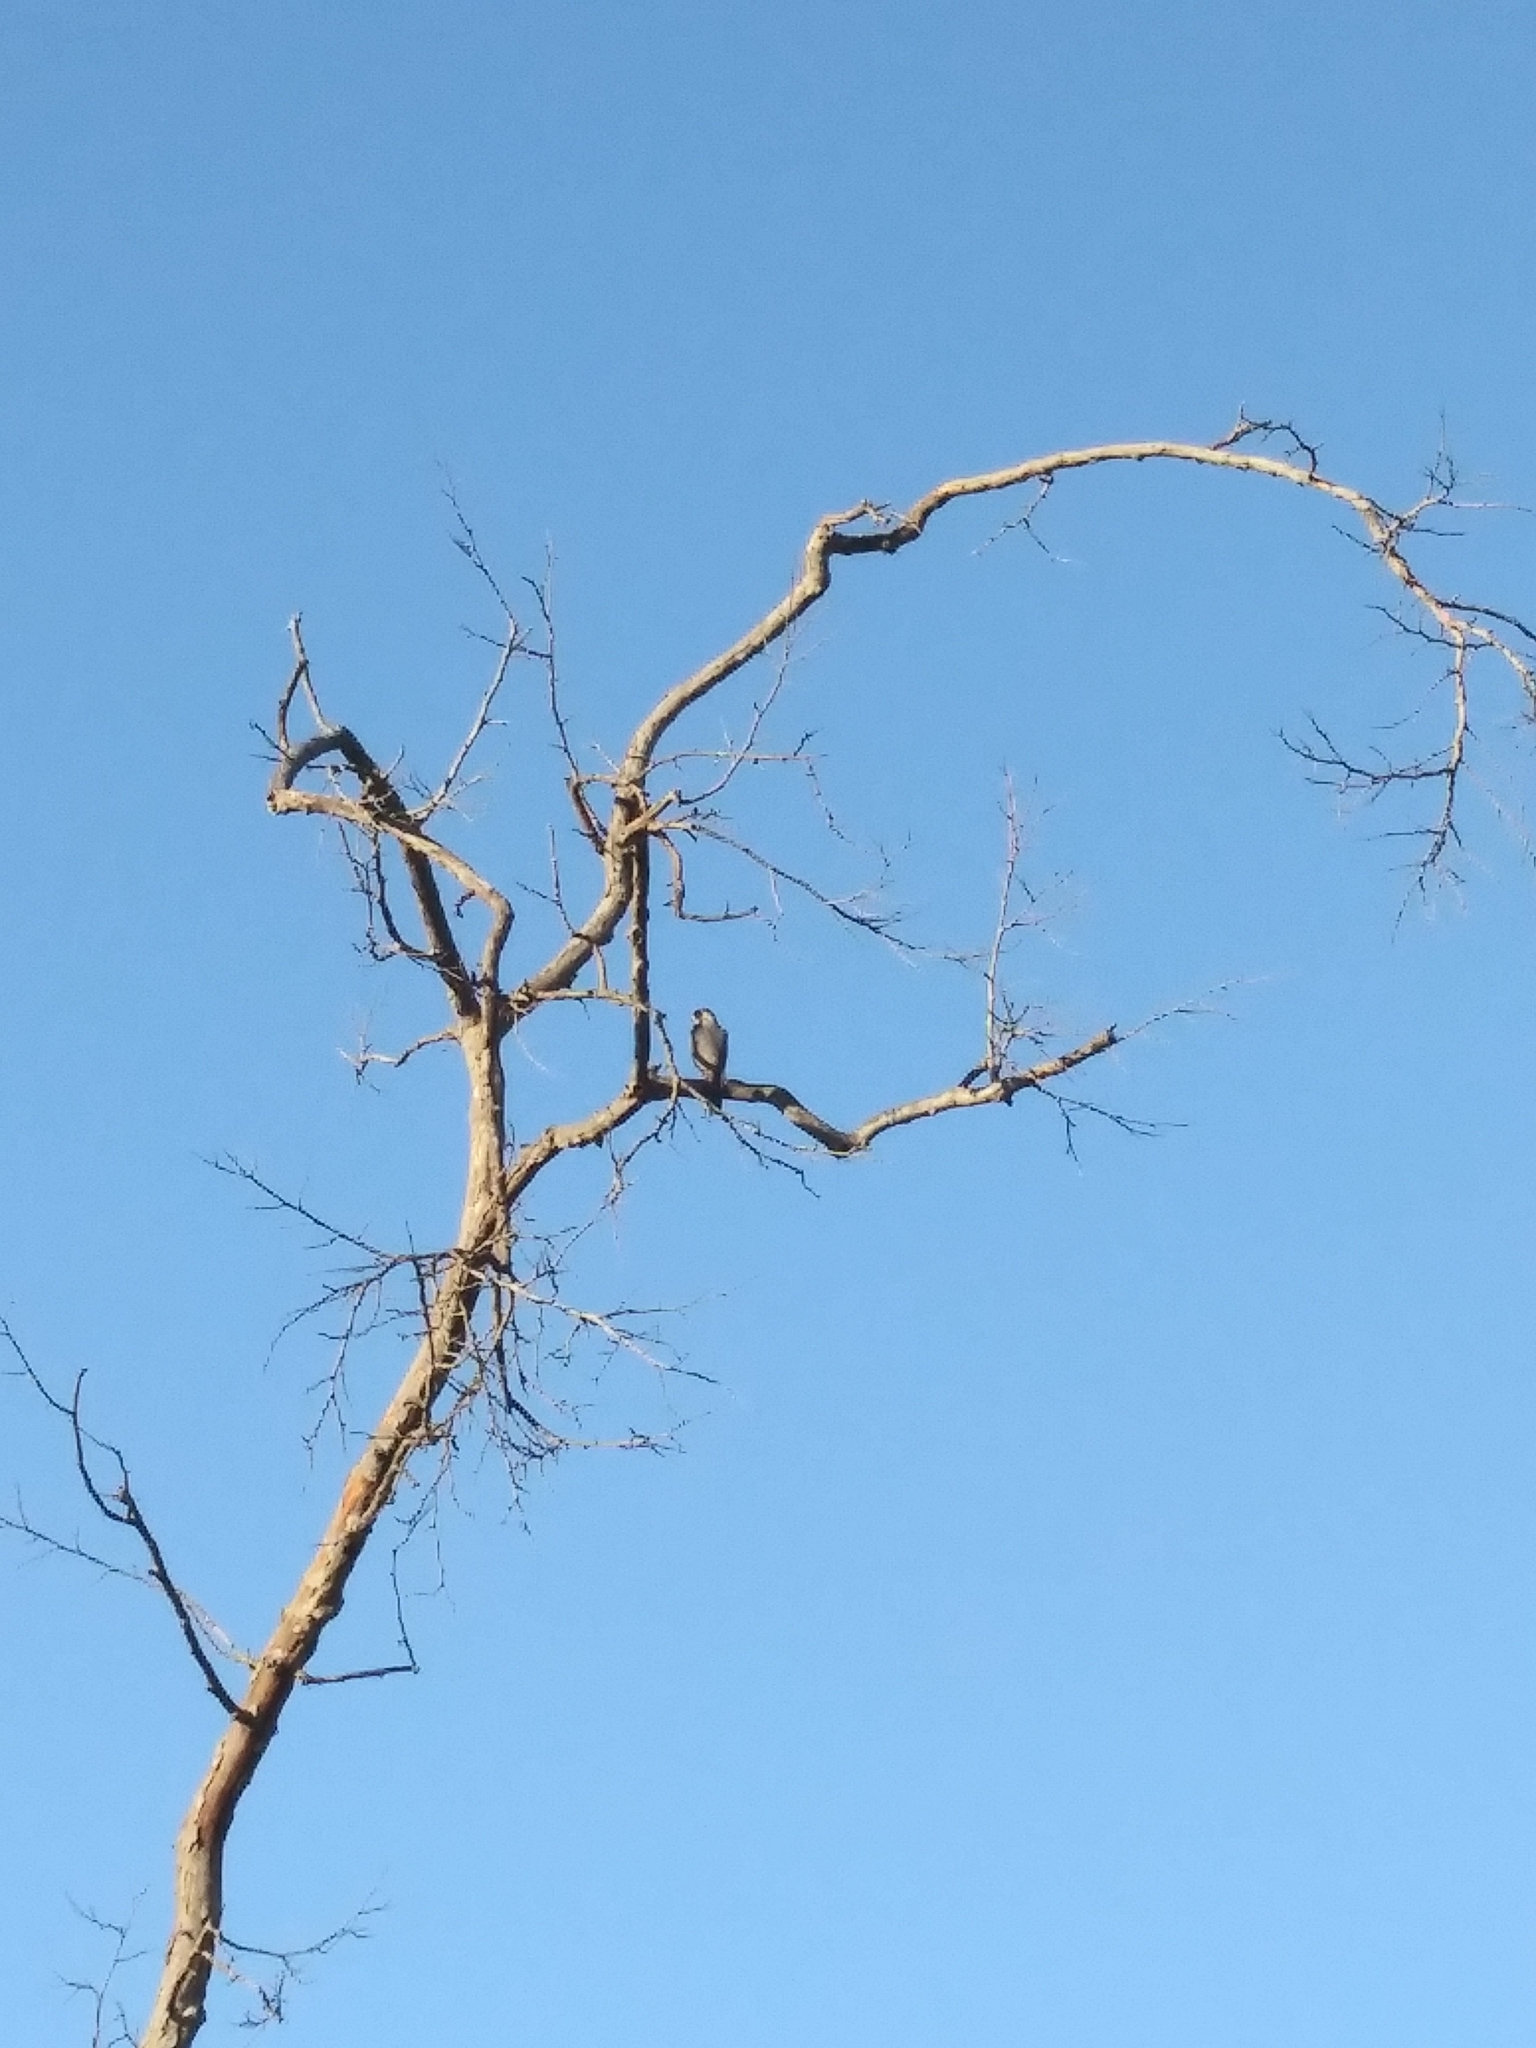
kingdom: Animalia
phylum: Chordata
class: Aves
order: Accipitriformes
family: Accipitridae
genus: Accipiter
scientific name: Accipiter
